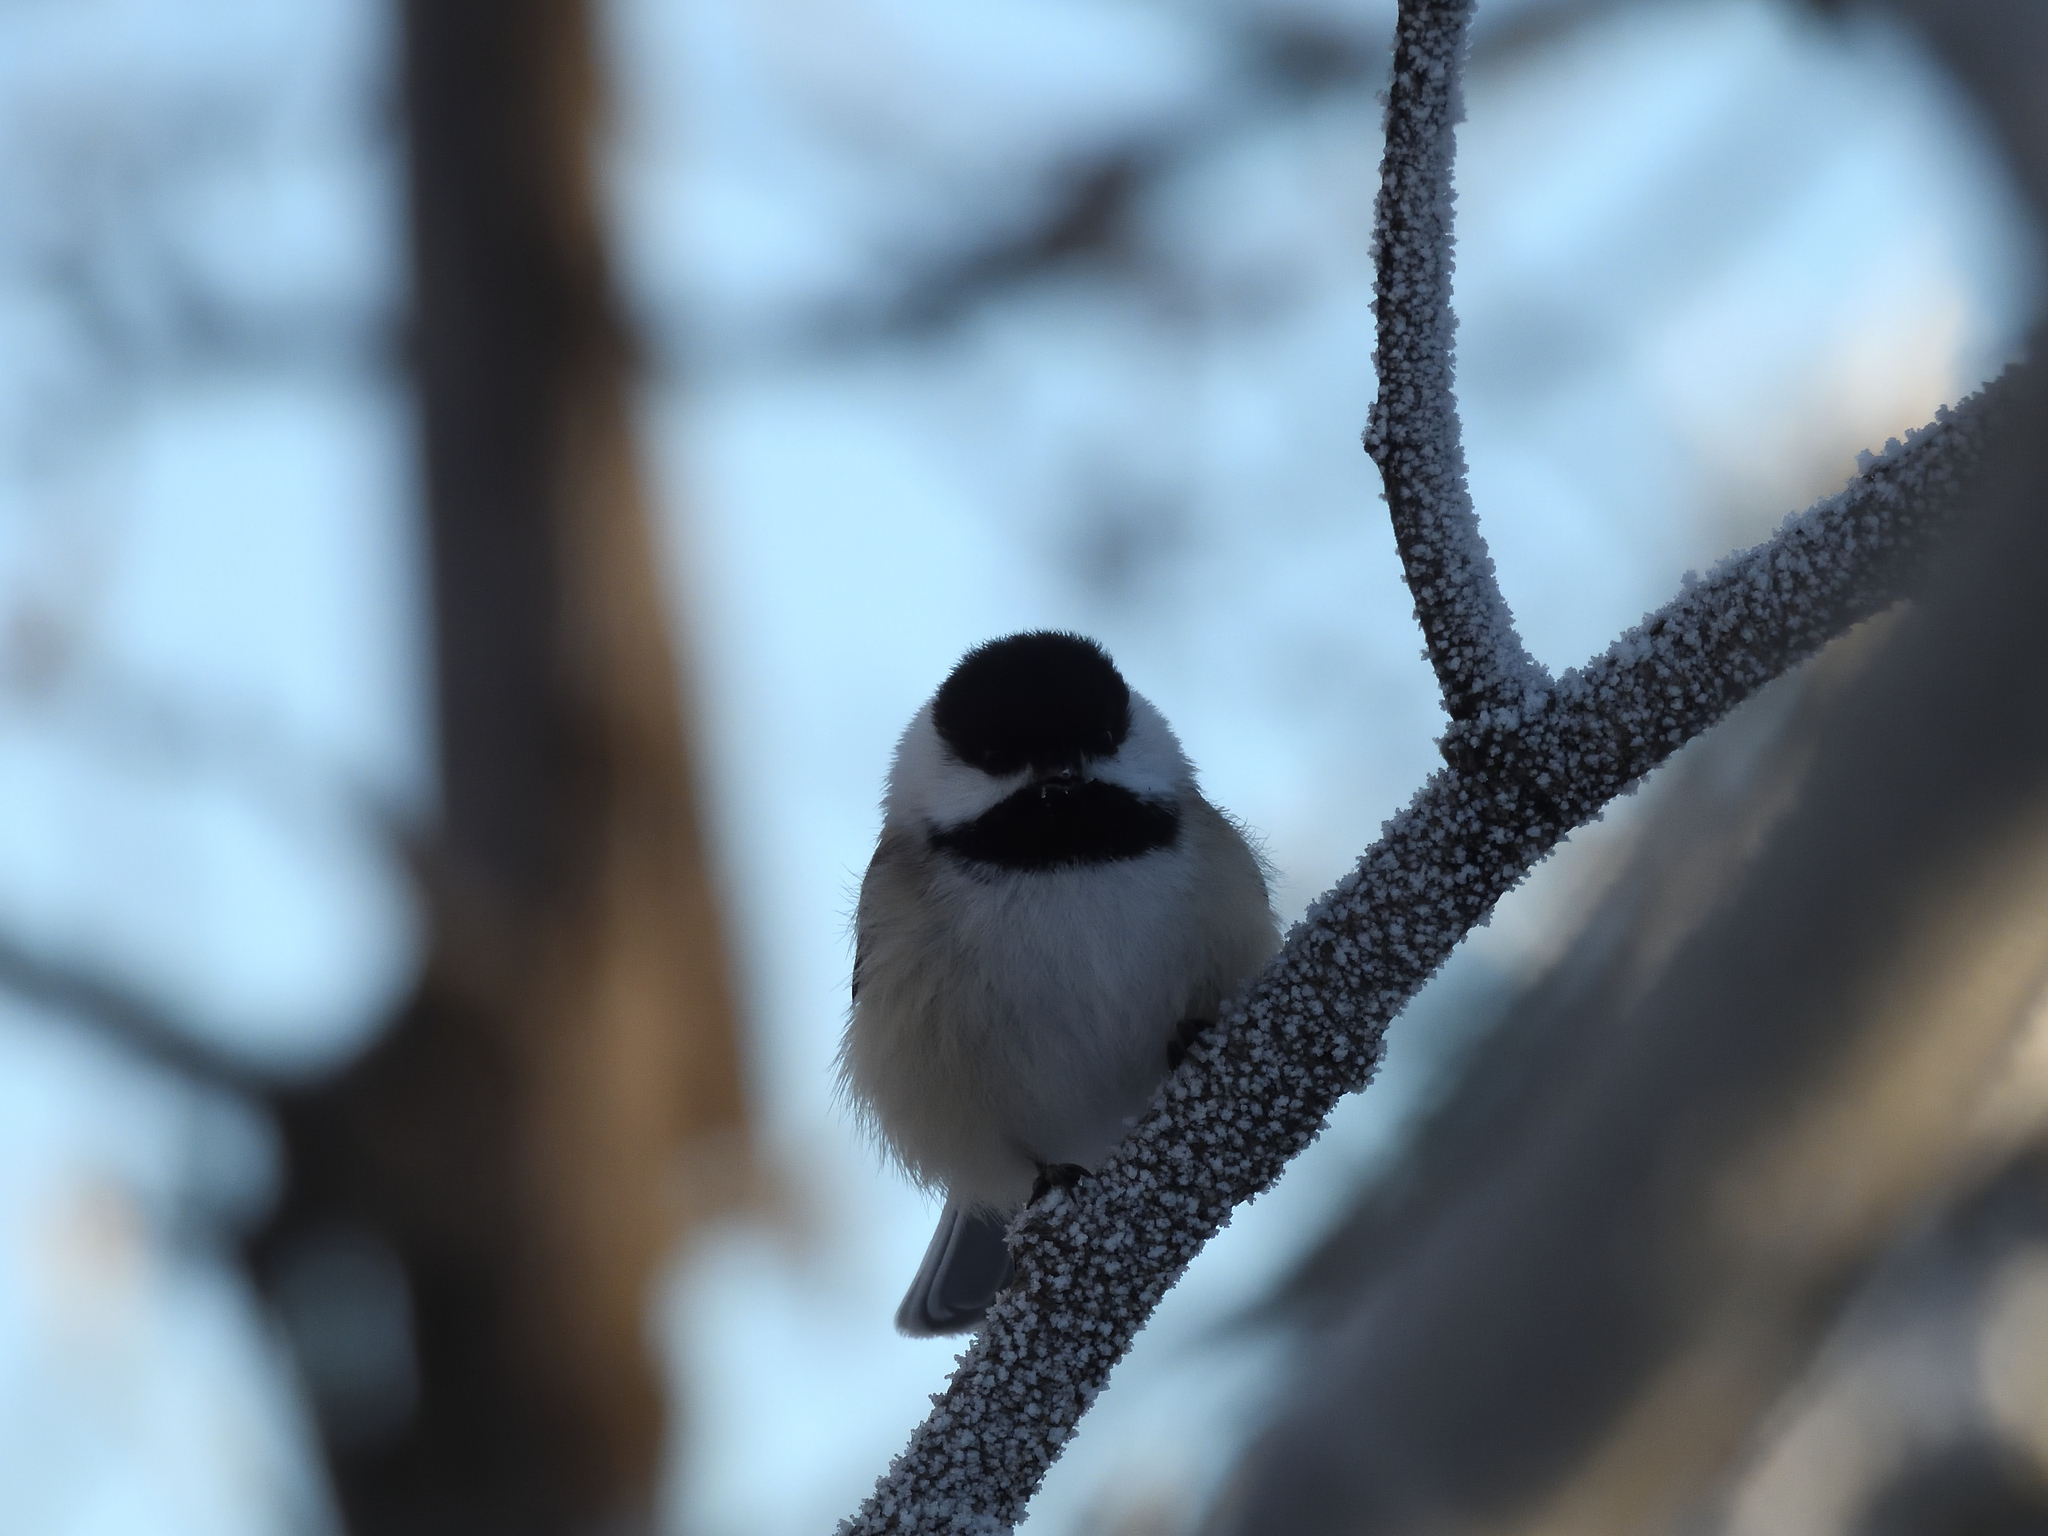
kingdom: Animalia
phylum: Chordata
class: Aves
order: Passeriformes
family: Paridae
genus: Poecile
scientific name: Poecile atricapillus
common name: Black-capped chickadee
